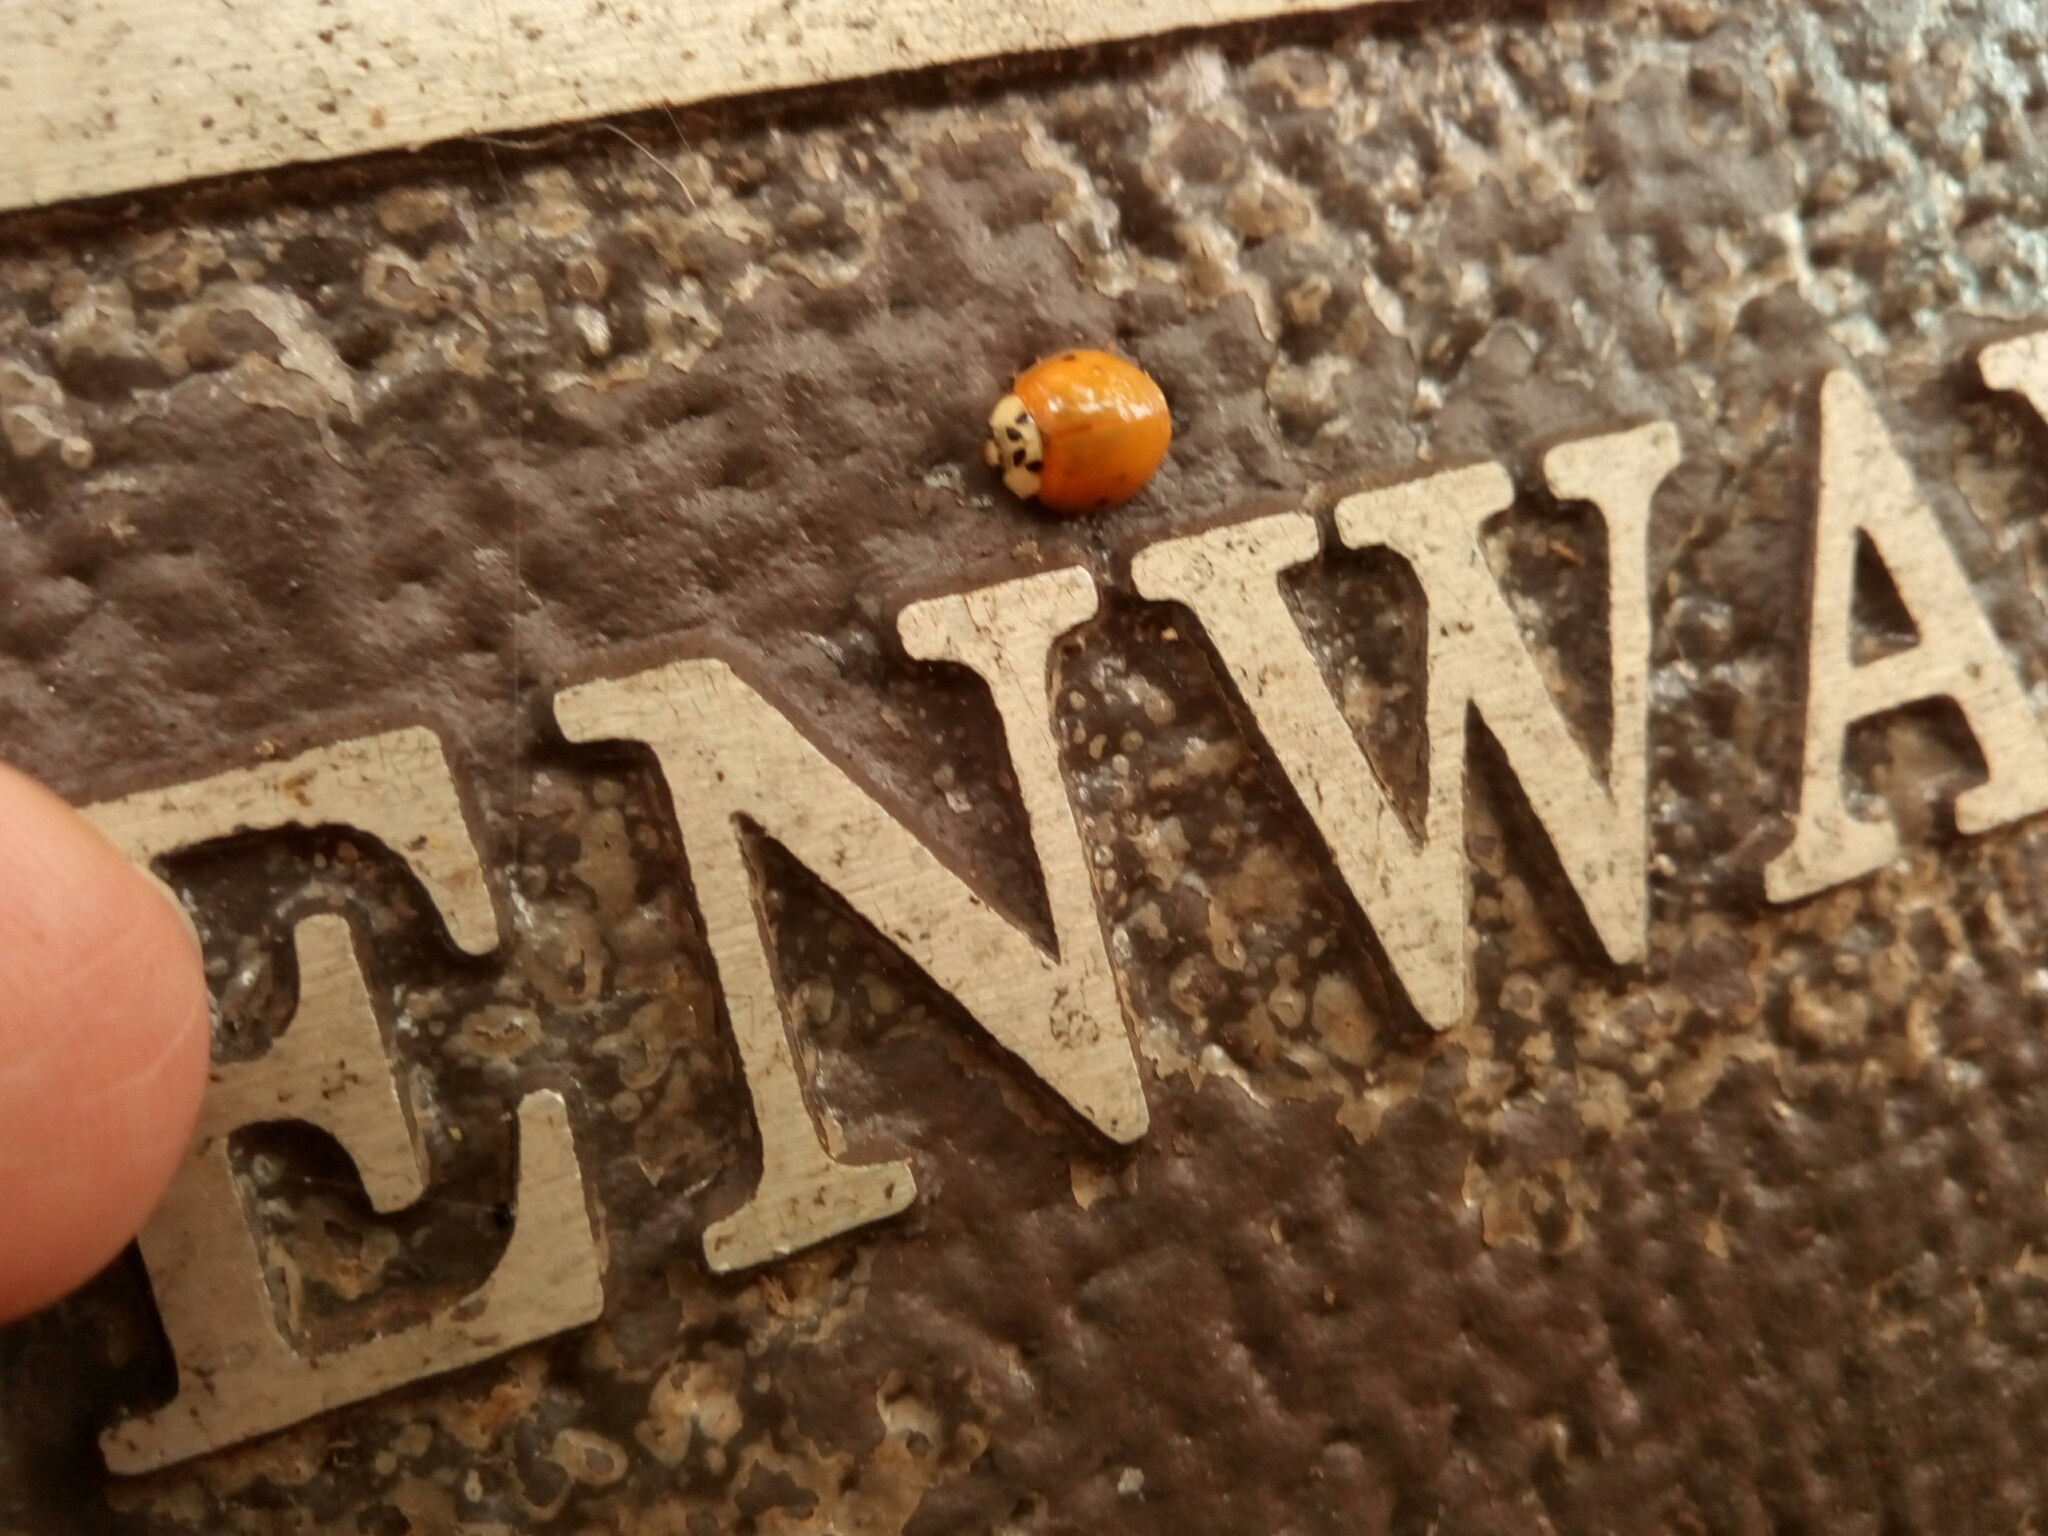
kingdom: Animalia
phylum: Arthropoda
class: Insecta
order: Coleoptera
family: Coccinellidae
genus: Harmonia
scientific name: Harmonia axyridis
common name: Harlequin ladybird
